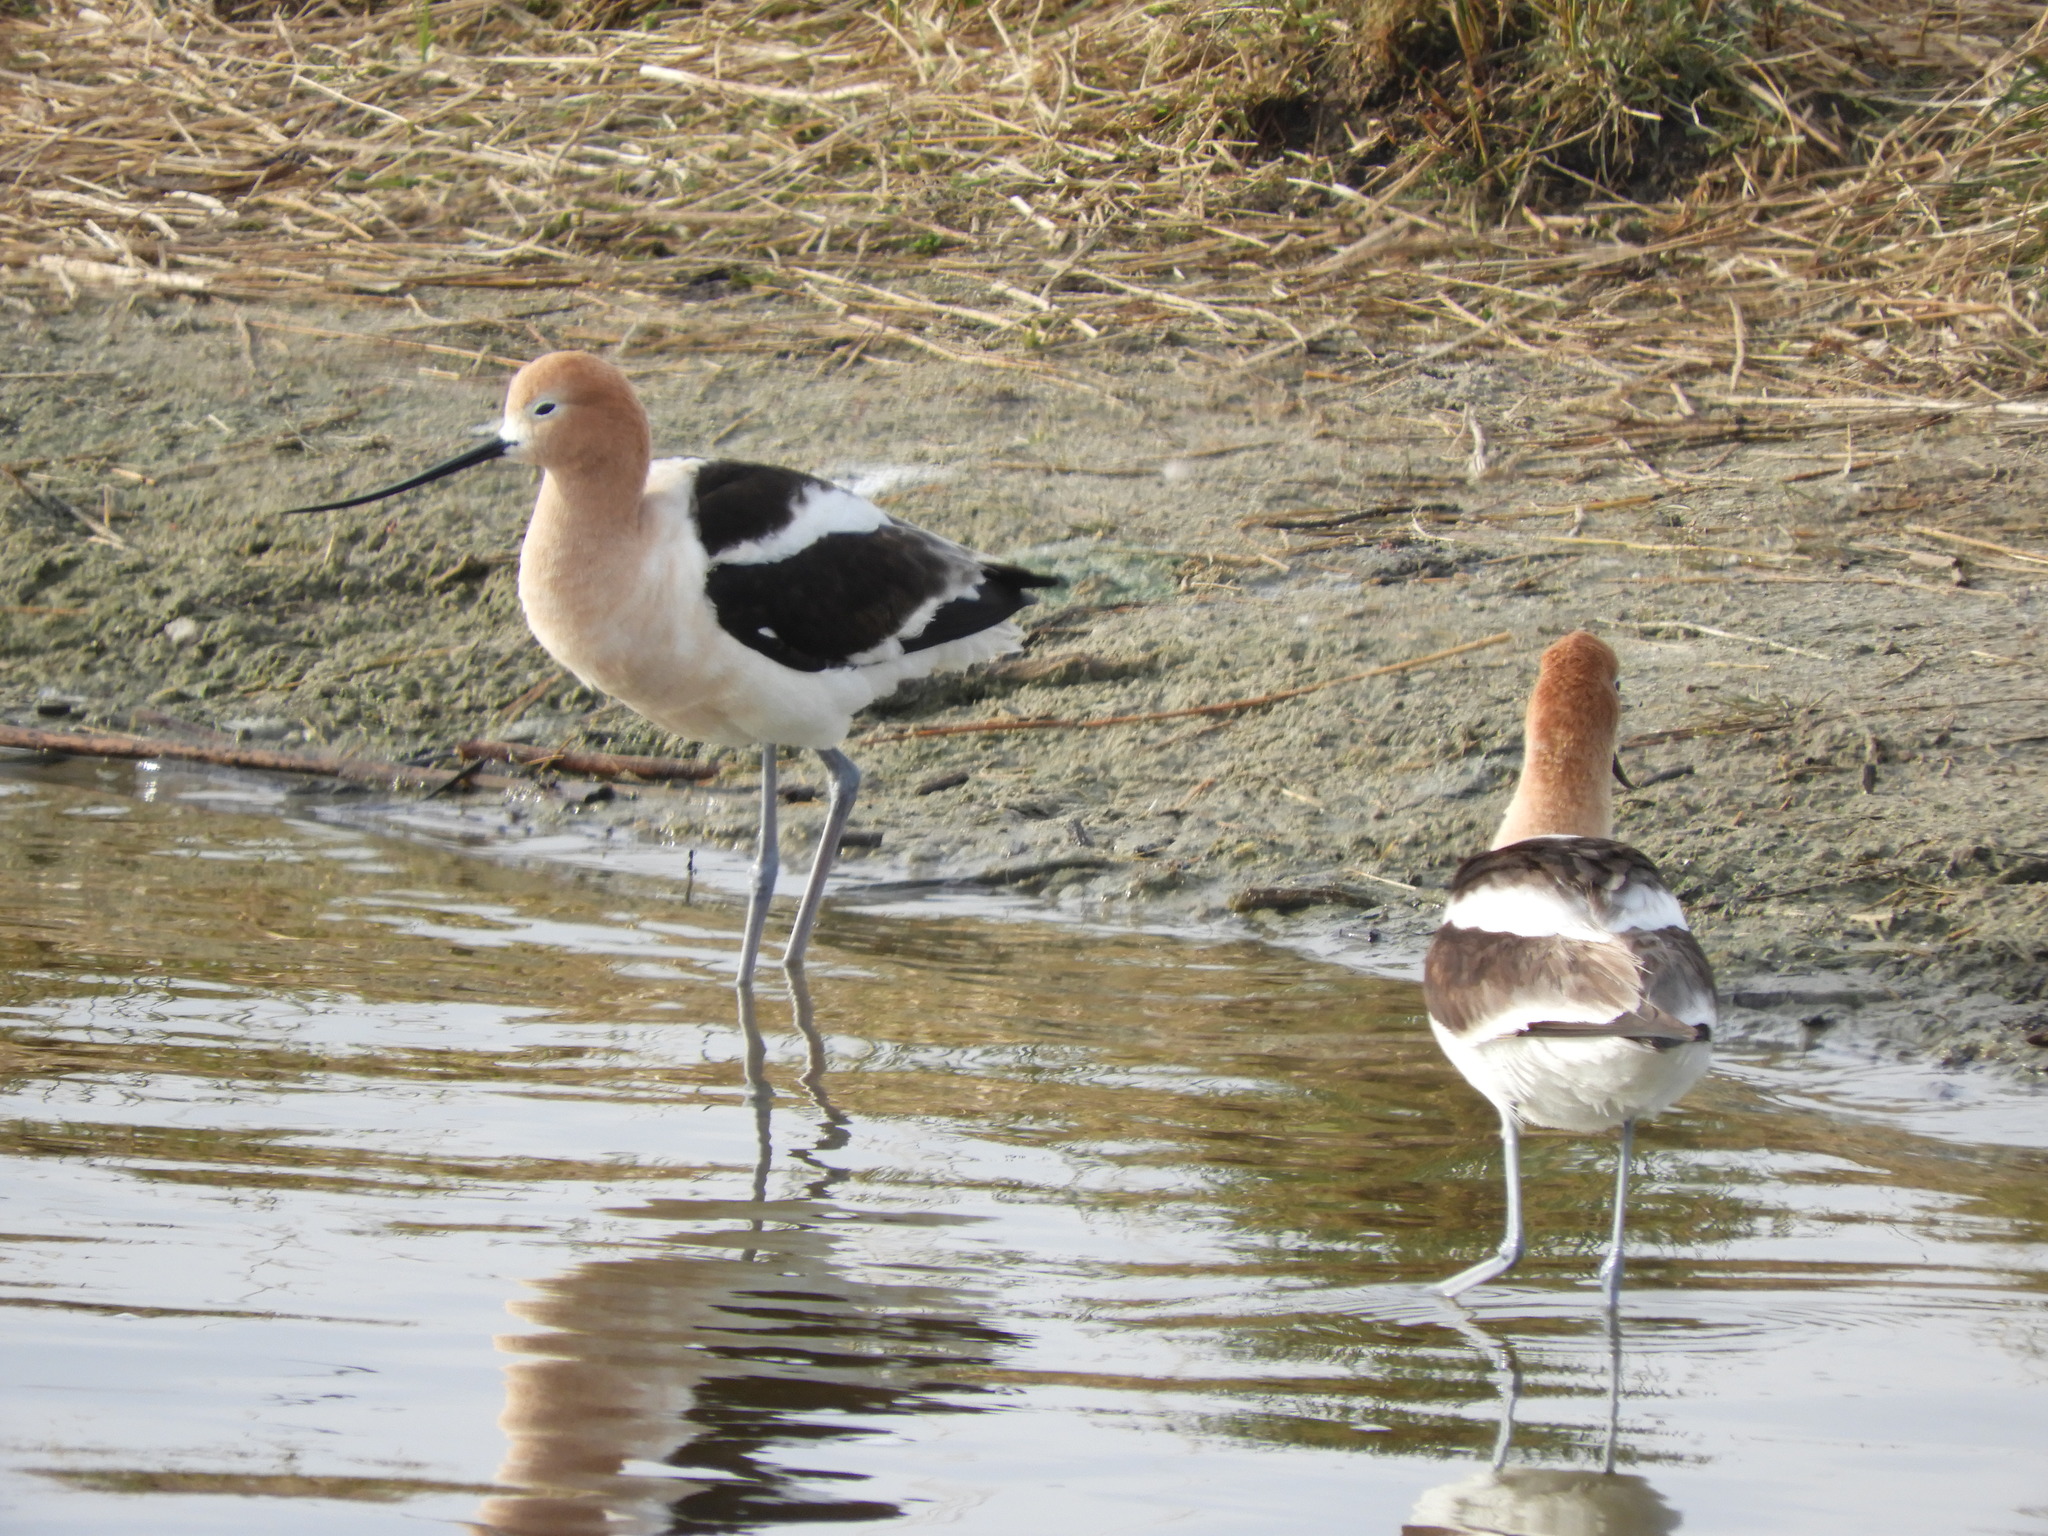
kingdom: Animalia
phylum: Chordata
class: Aves
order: Charadriiformes
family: Recurvirostridae
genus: Recurvirostra
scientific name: Recurvirostra americana
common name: American avocet
